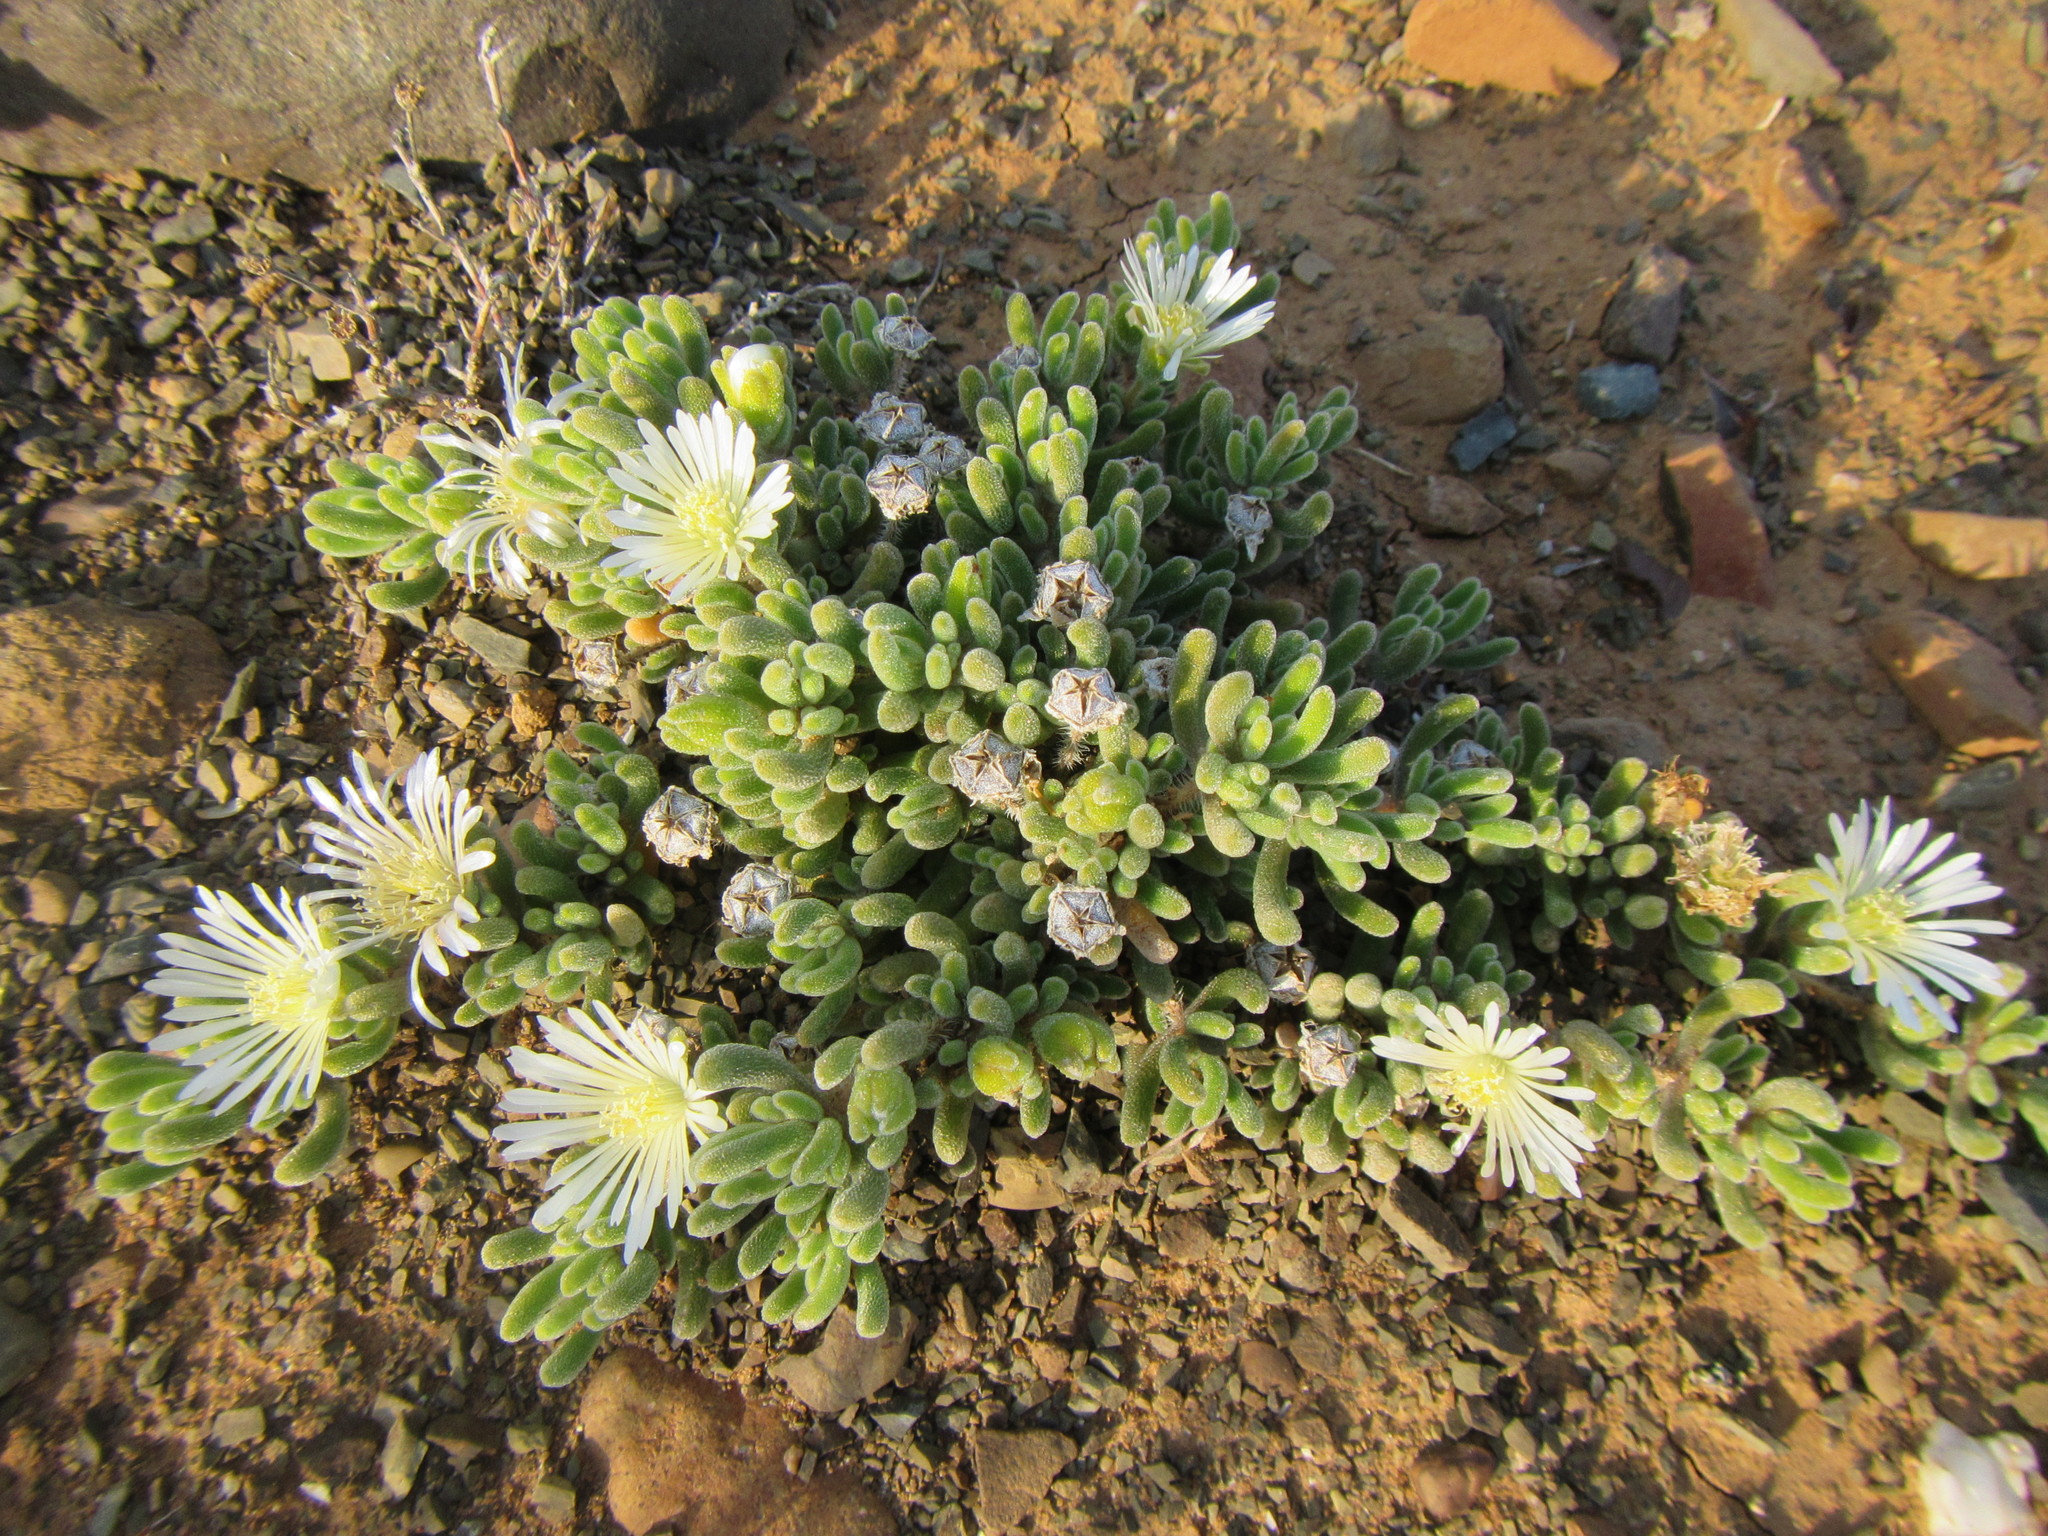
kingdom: Plantae
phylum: Tracheophyta
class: Magnoliopsida
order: Caryophyllales
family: Aizoaceae
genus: Drosanthemum
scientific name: Drosanthemum framesii
